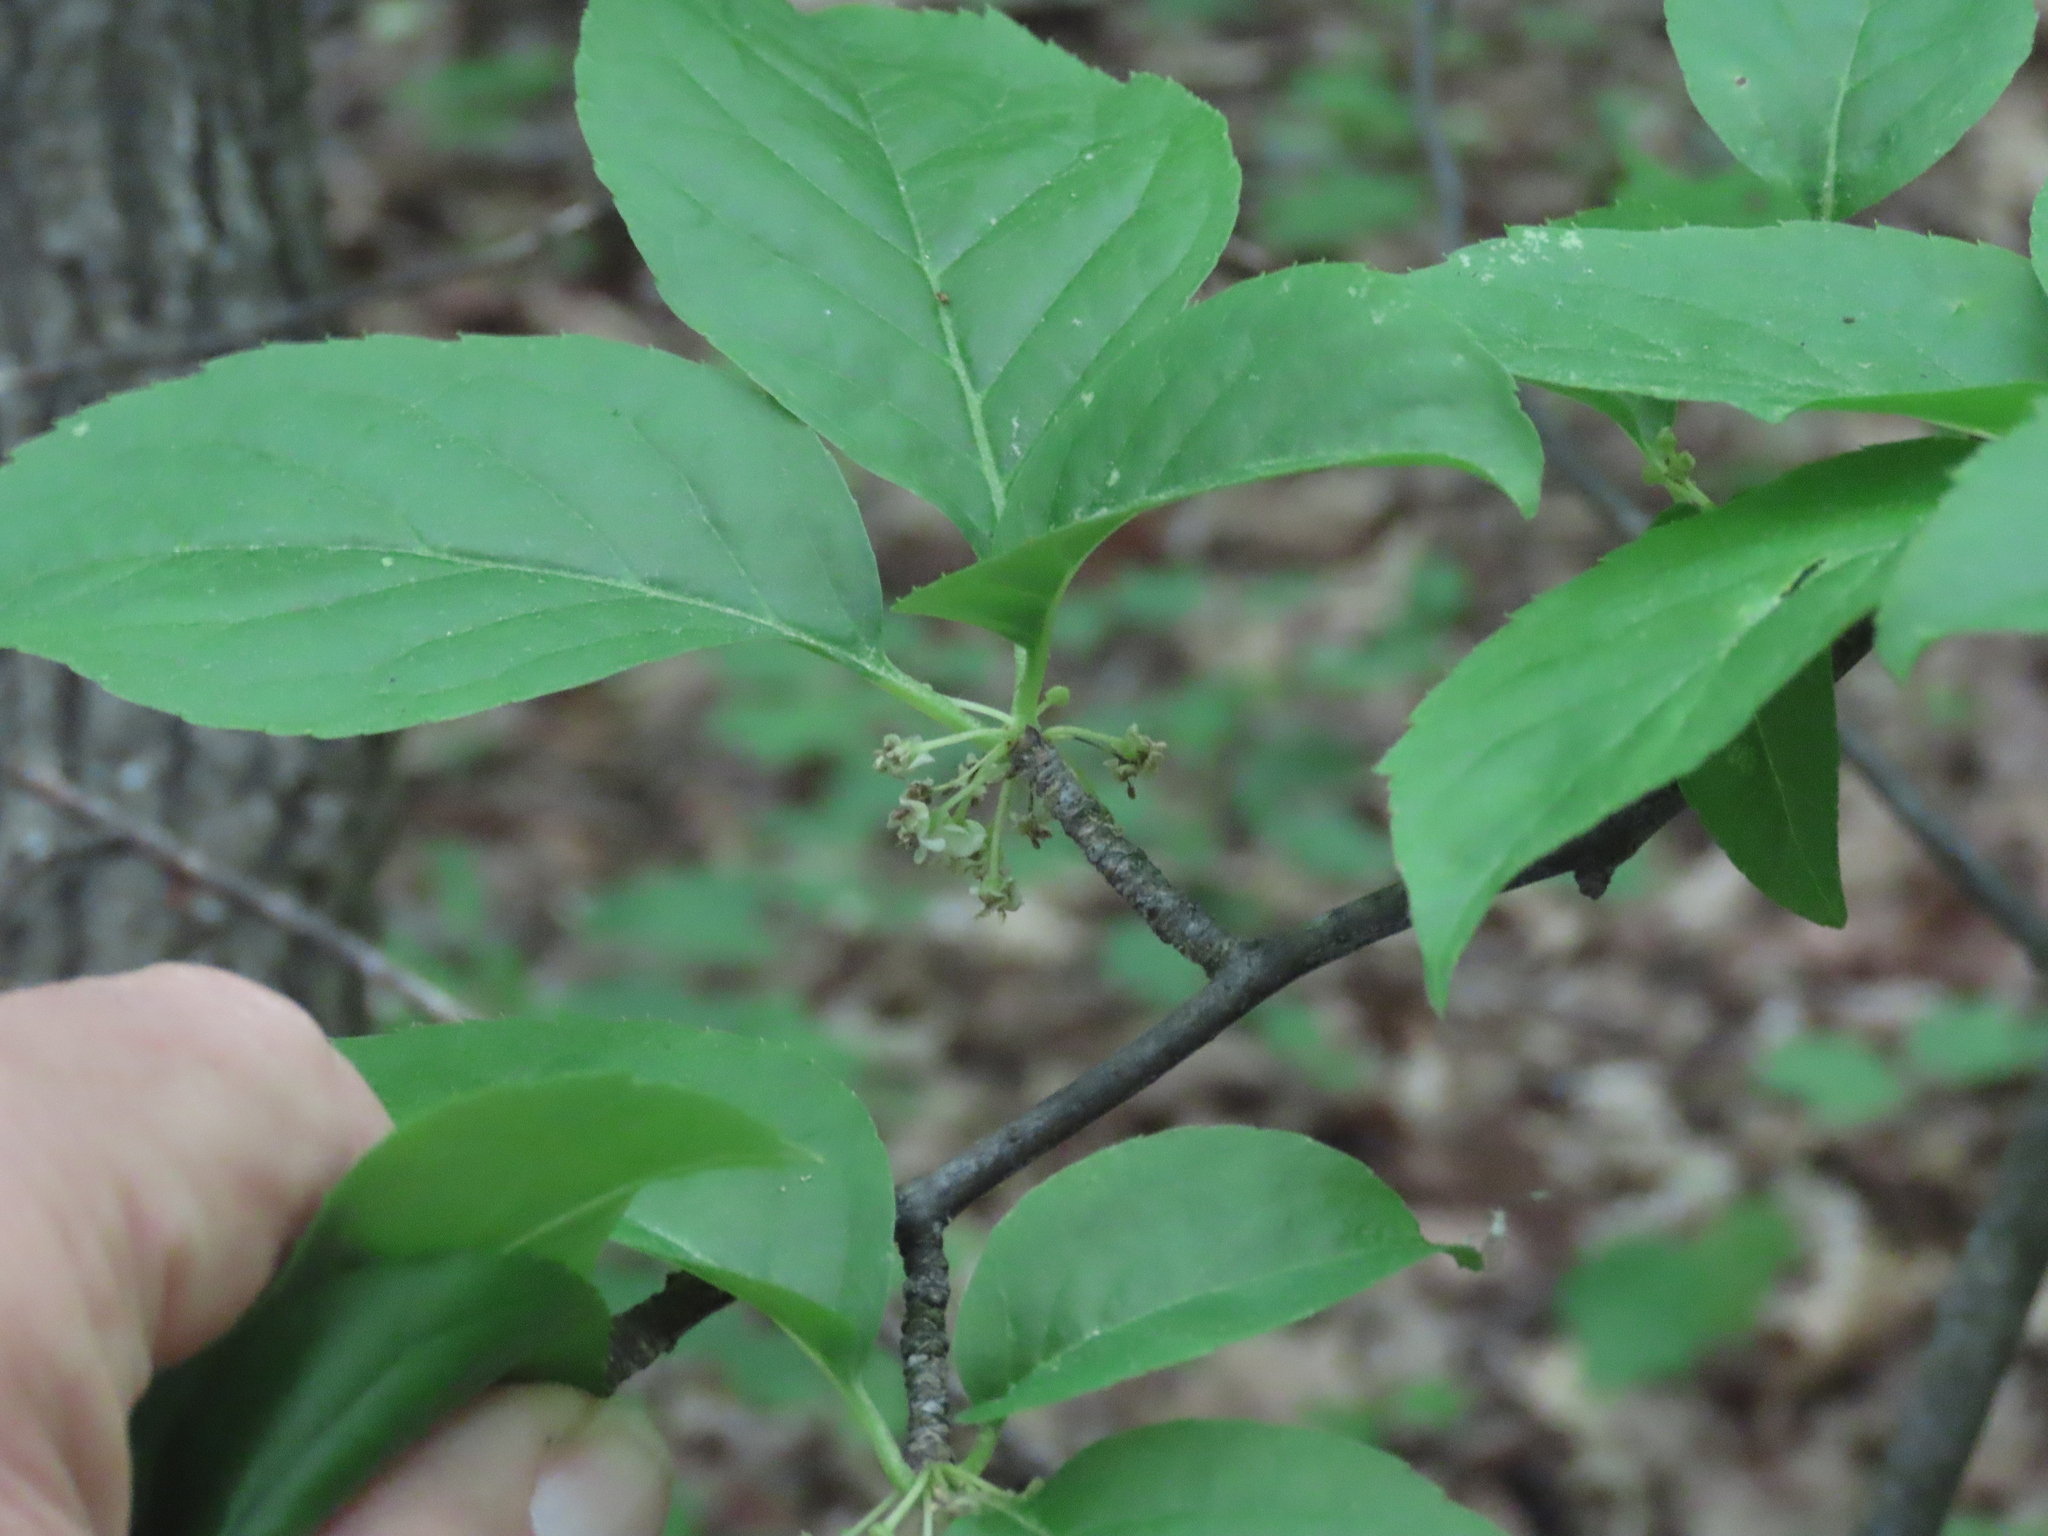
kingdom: Plantae
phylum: Tracheophyta
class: Magnoliopsida
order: Aquifoliales
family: Aquifoliaceae
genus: Ilex
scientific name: Ilex montana
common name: Mountain winterberry
